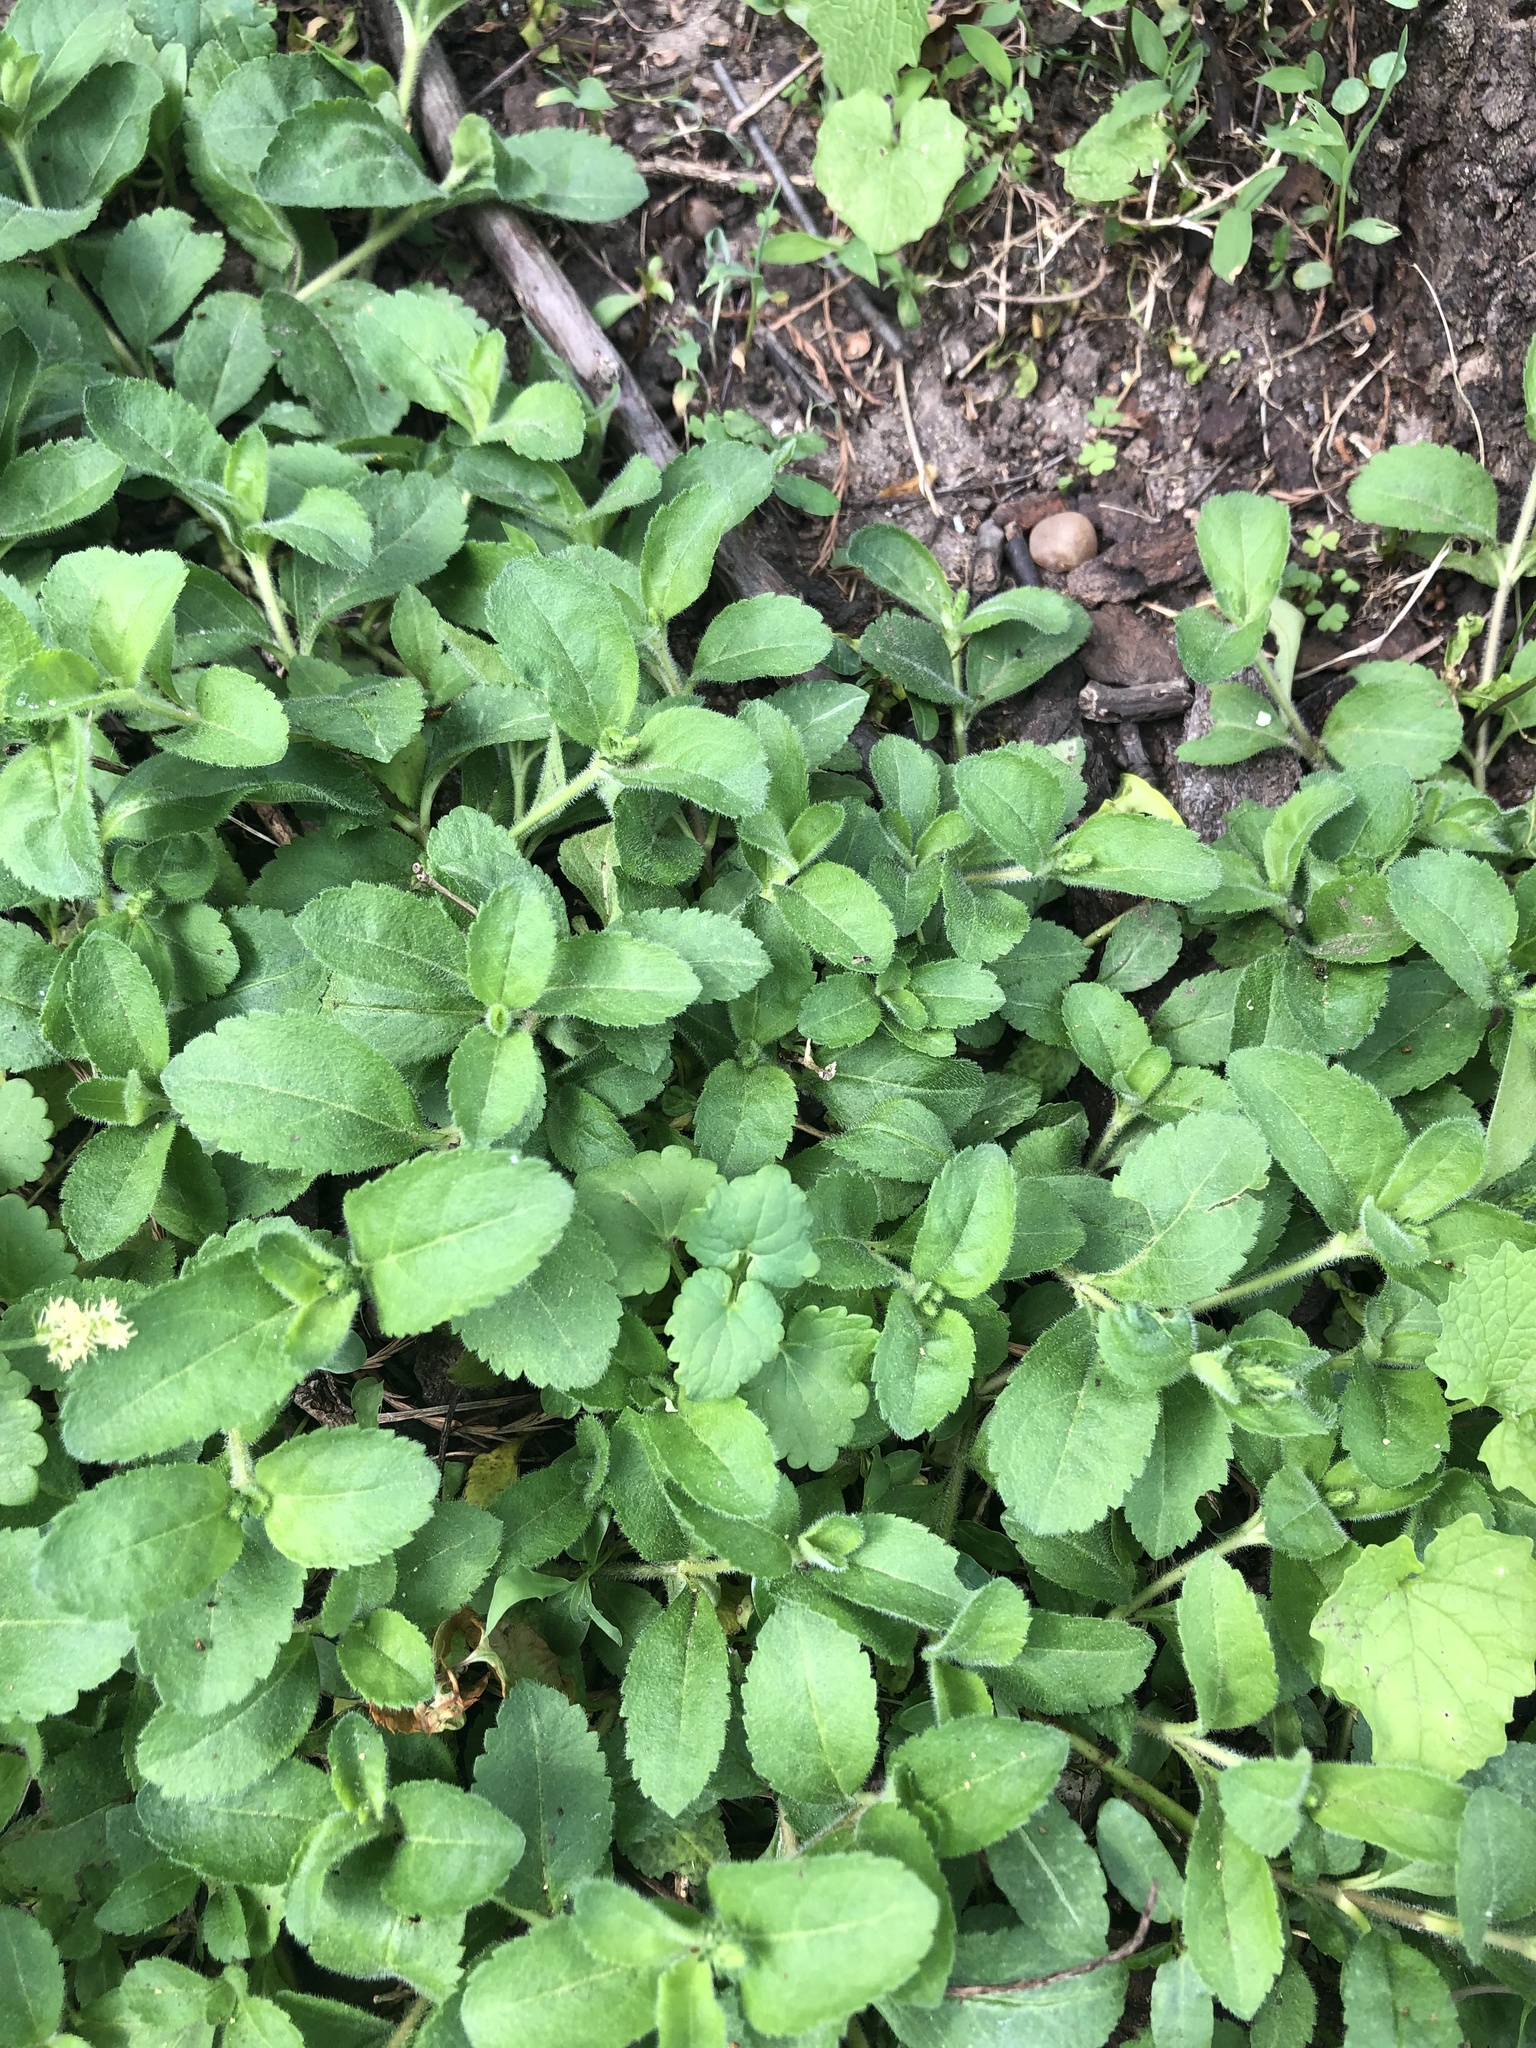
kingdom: Plantae
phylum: Tracheophyta
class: Magnoliopsida
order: Lamiales
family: Plantaginaceae
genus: Veronica
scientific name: Veronica officinalis
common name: Common speedwell
